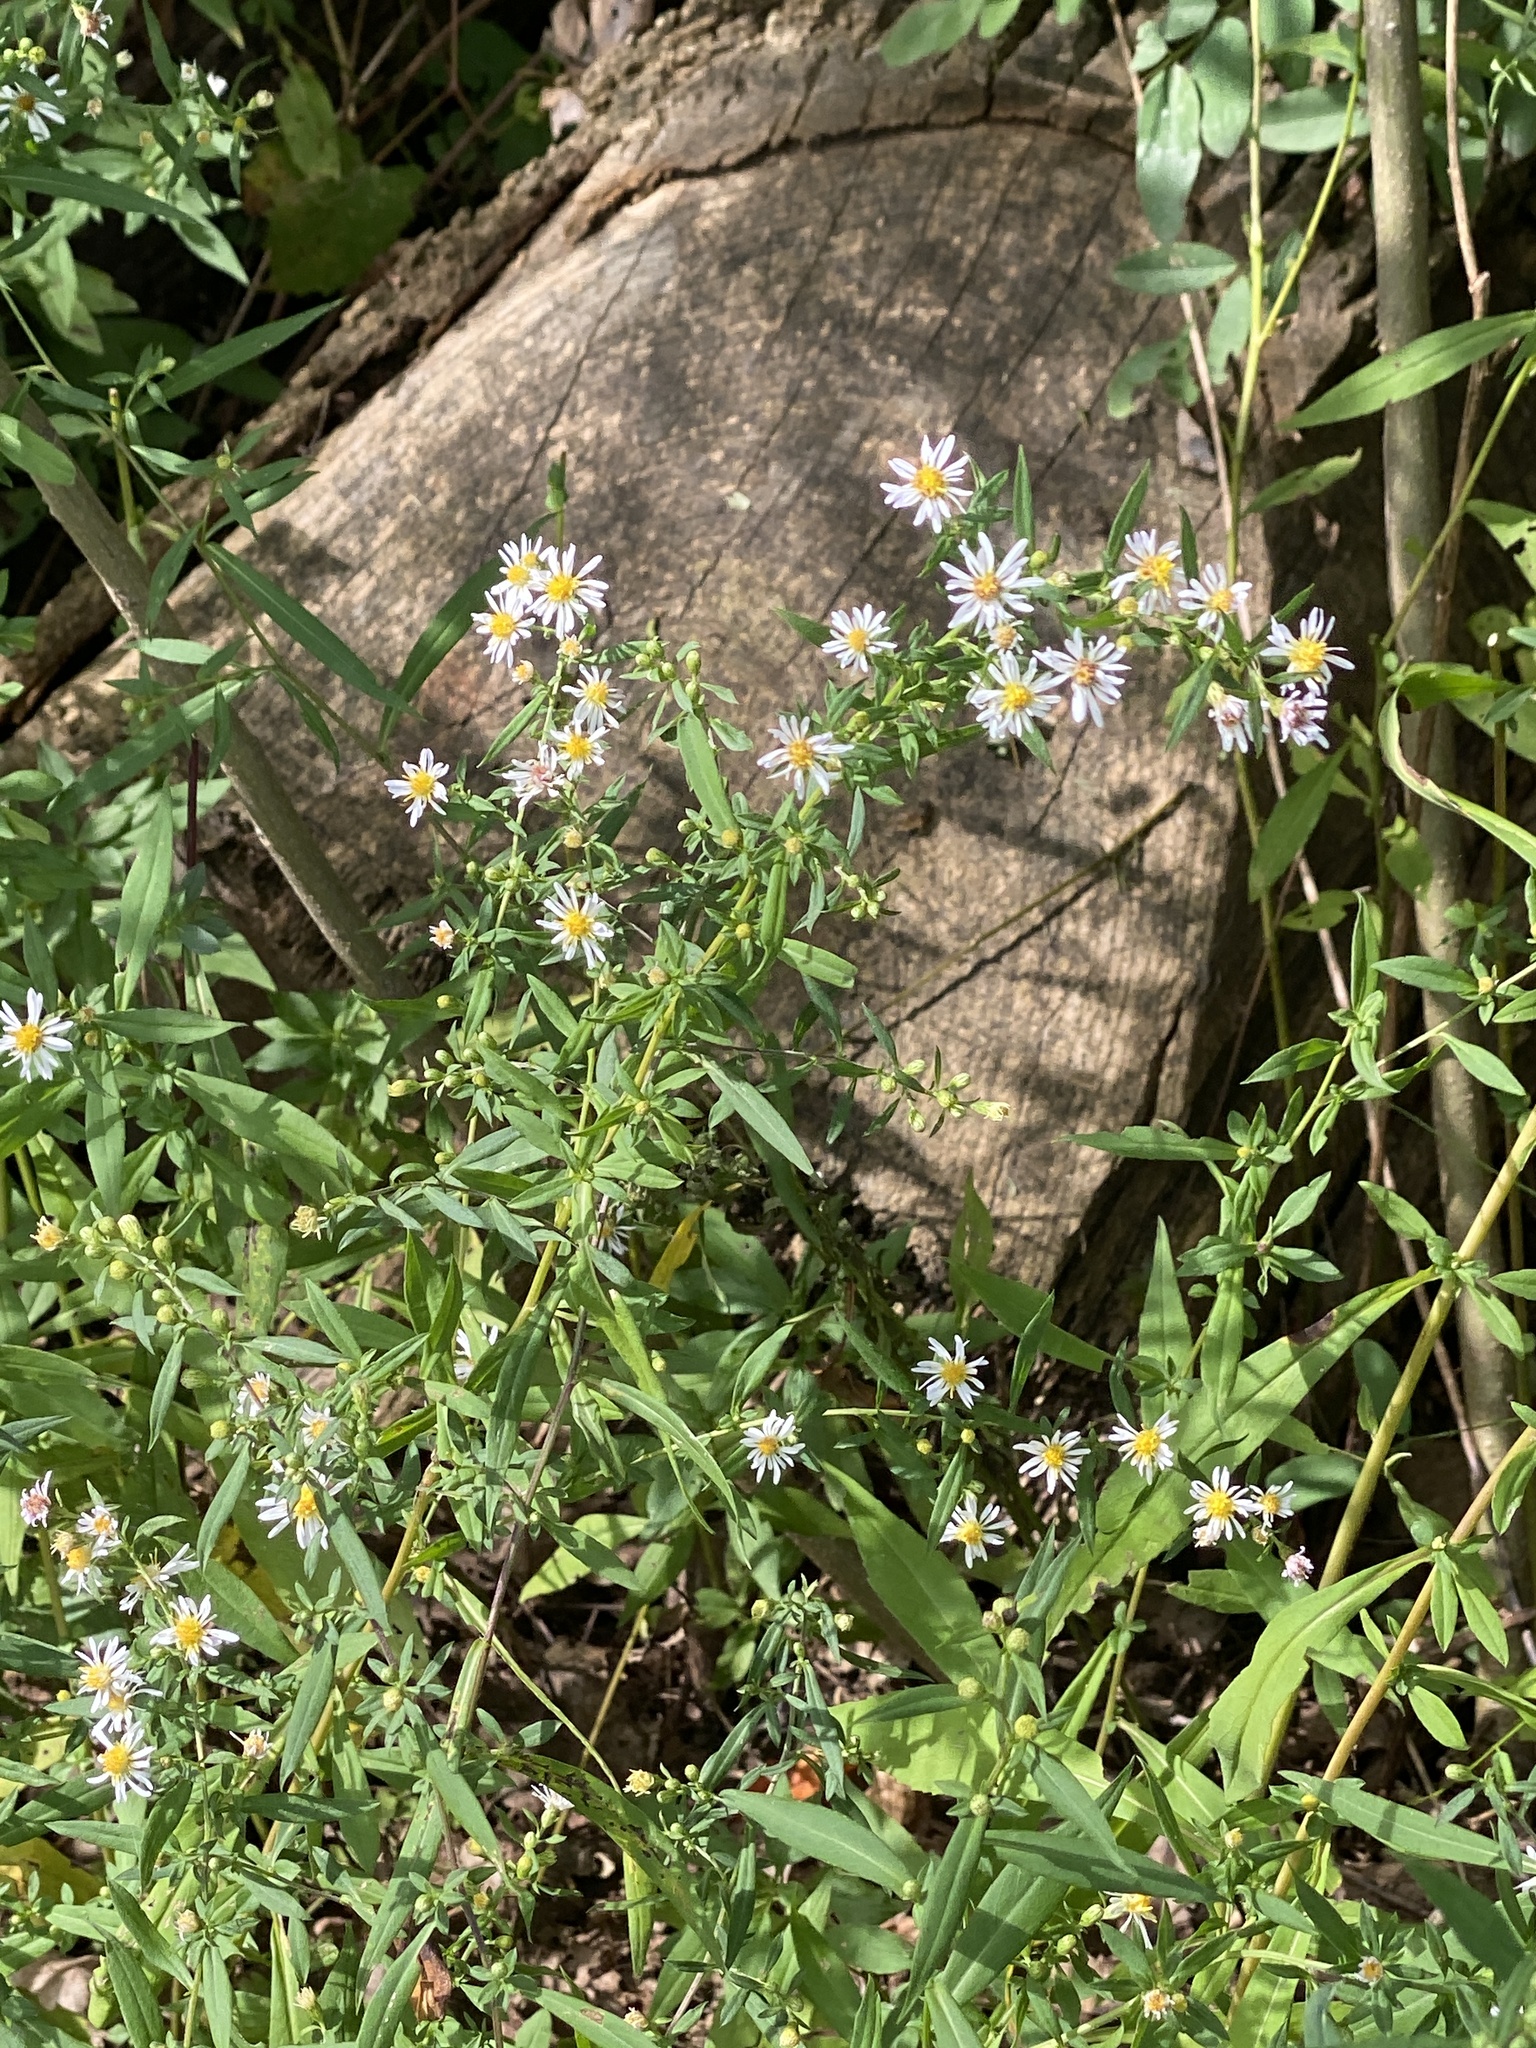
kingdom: Plantae
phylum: Tracheophyta
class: Magnoliopsida
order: Asterales
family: Asteraceae
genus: Symphyotrichum
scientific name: Symphyotrichum lanceolatum
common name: Panicled aster
